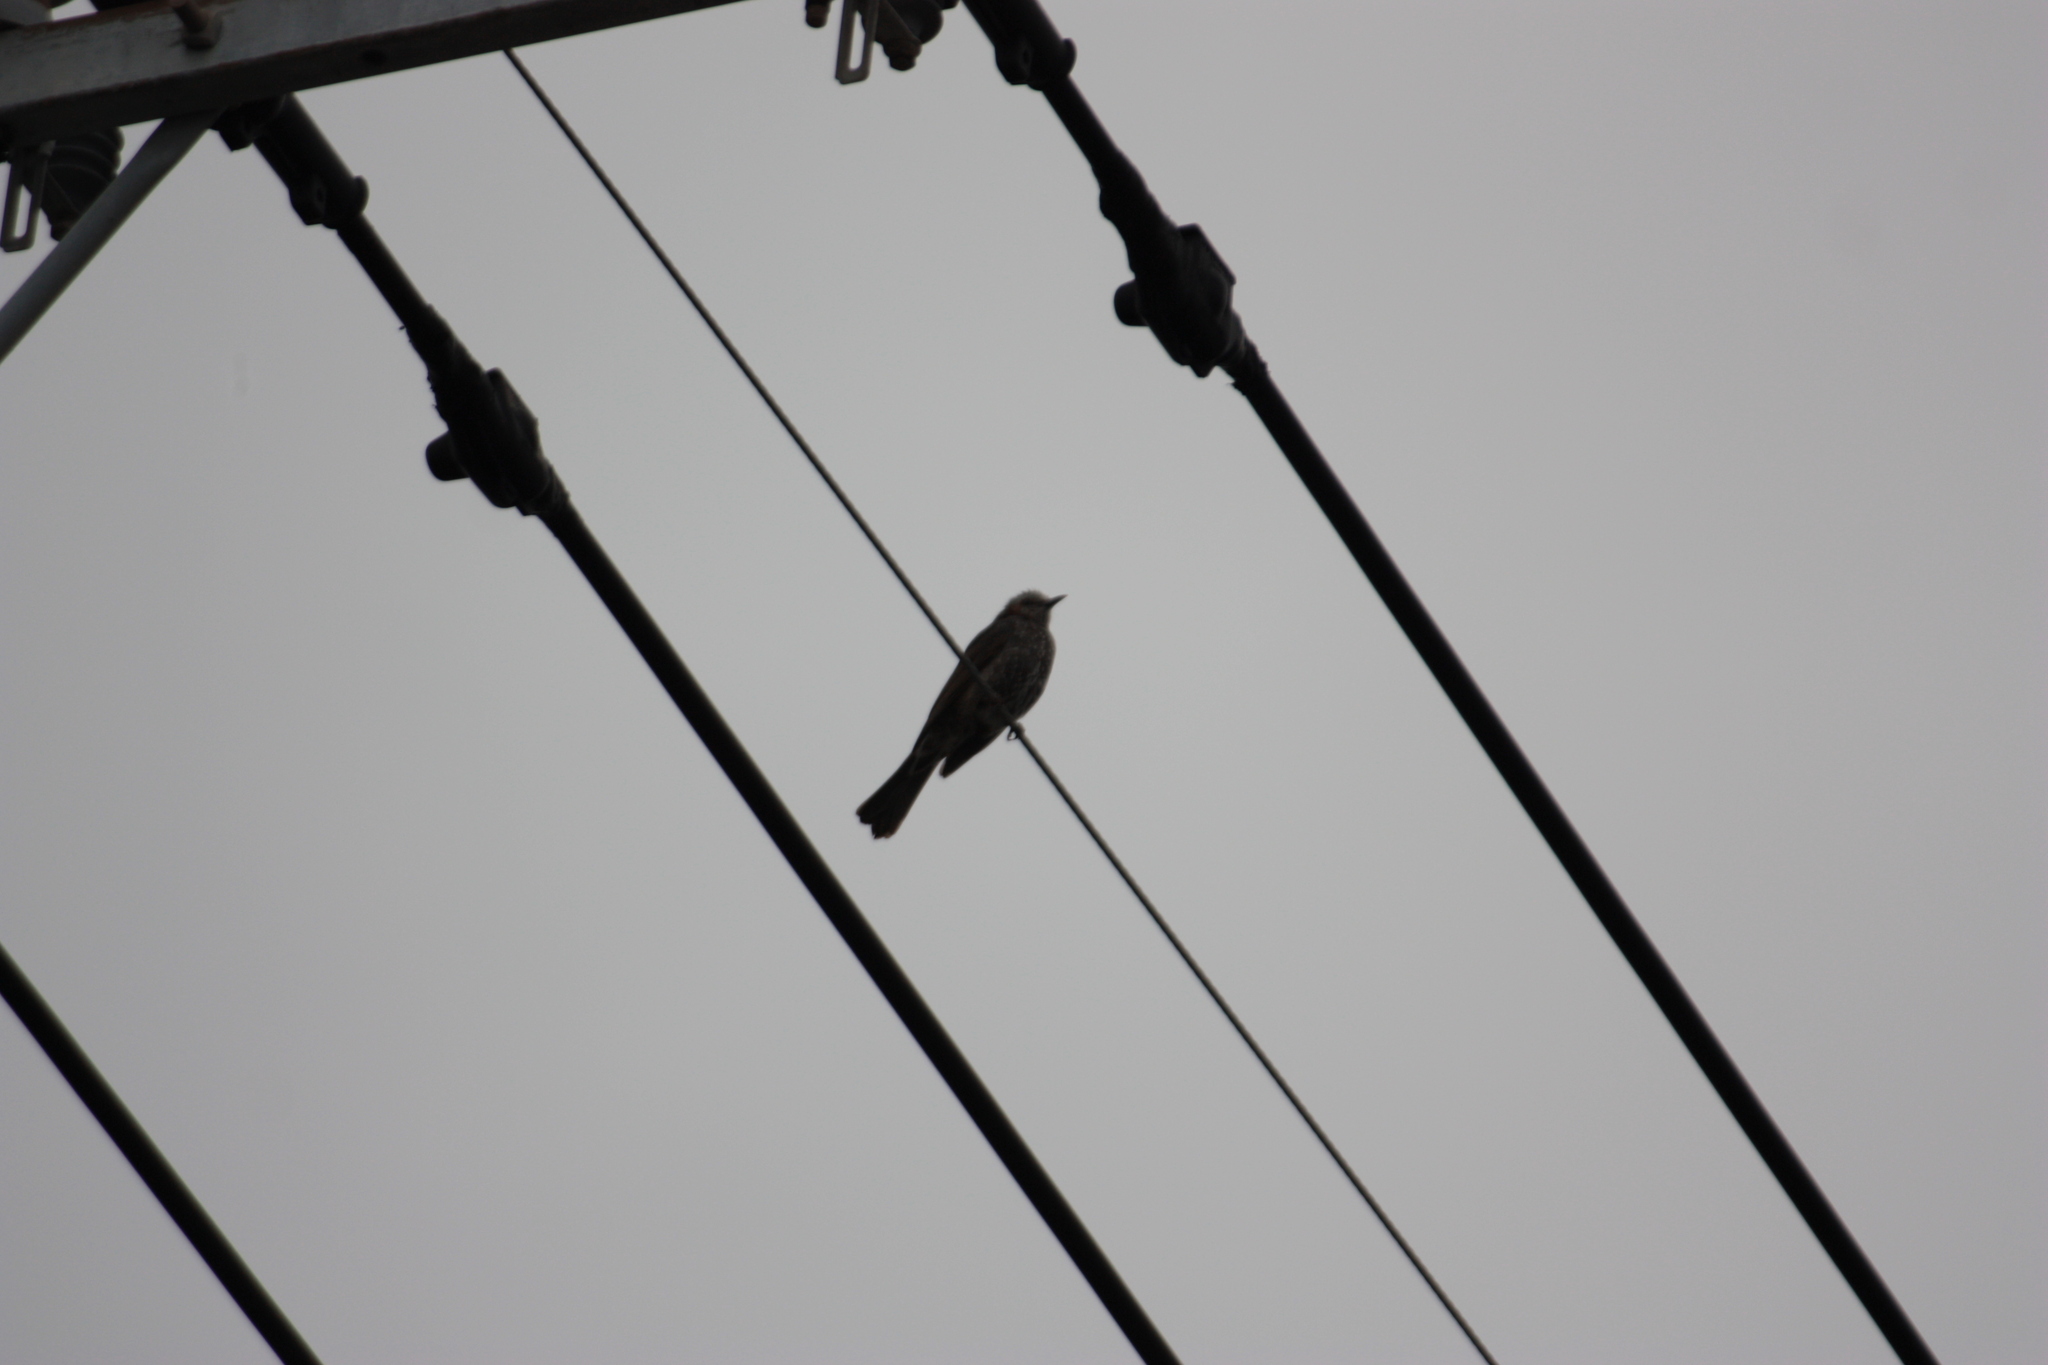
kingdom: Animalia
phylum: Chordata
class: Aves
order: Passeriformes
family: Pycnonotidae
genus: Hypsipetes
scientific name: Hypsipetes amaurotis
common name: Brown-eared bulbul
